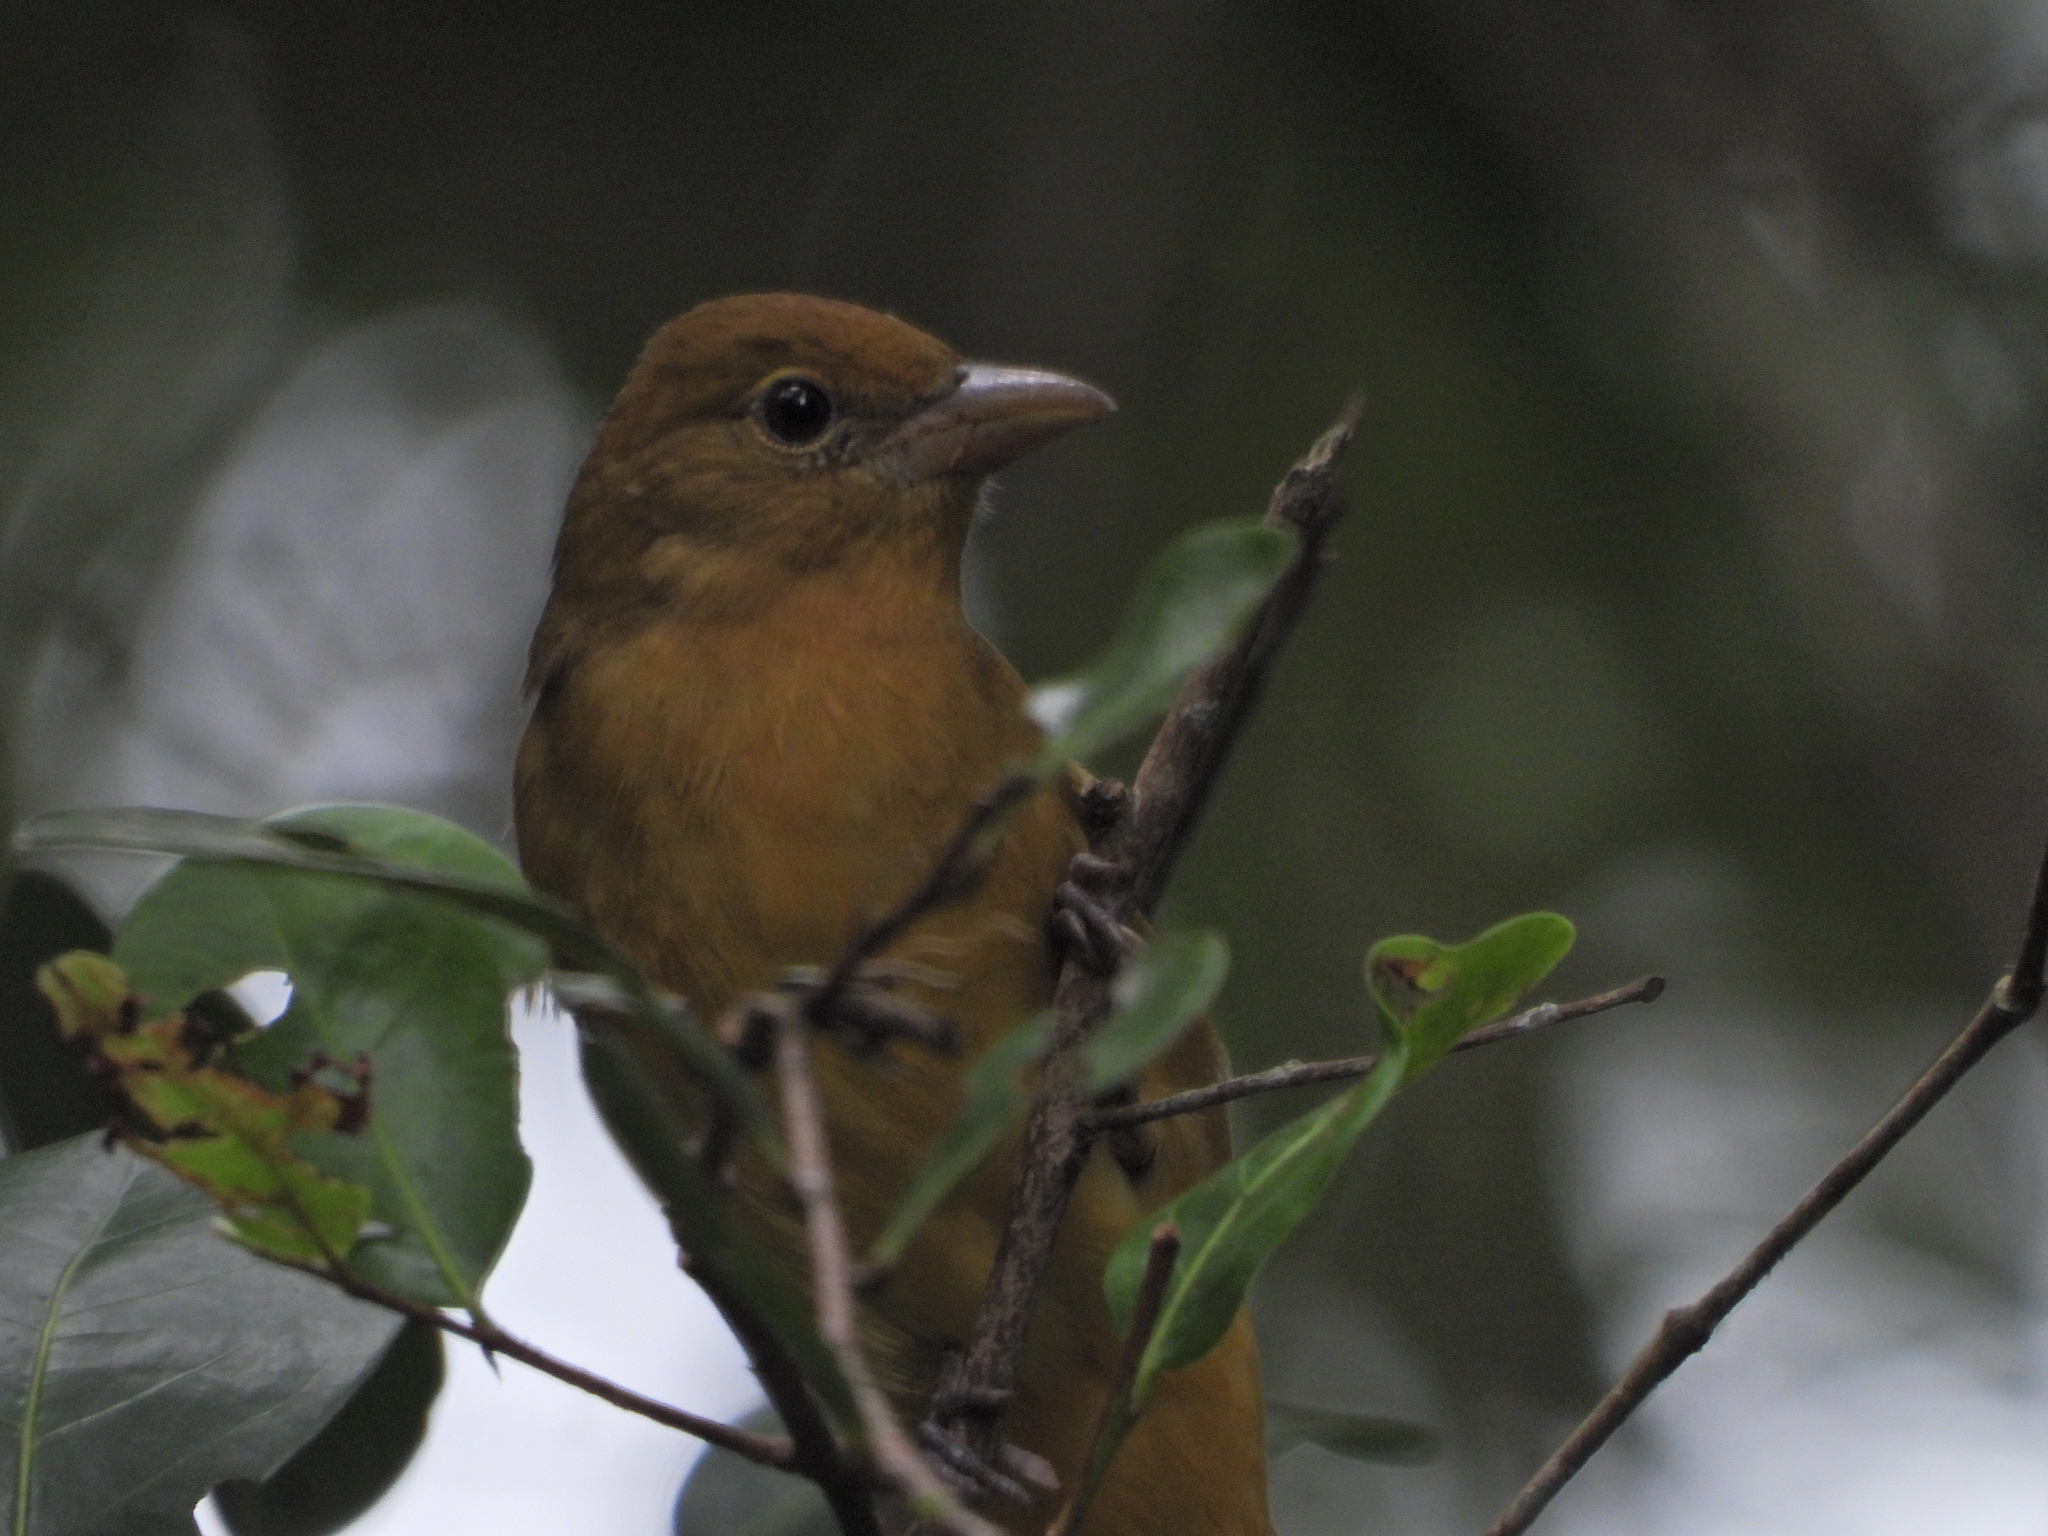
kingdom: Animalia
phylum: Chordata
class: Aves
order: Passeriformes
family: Cardinalidae
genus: Piranga
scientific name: Piranga rubra
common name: Summer tanager
